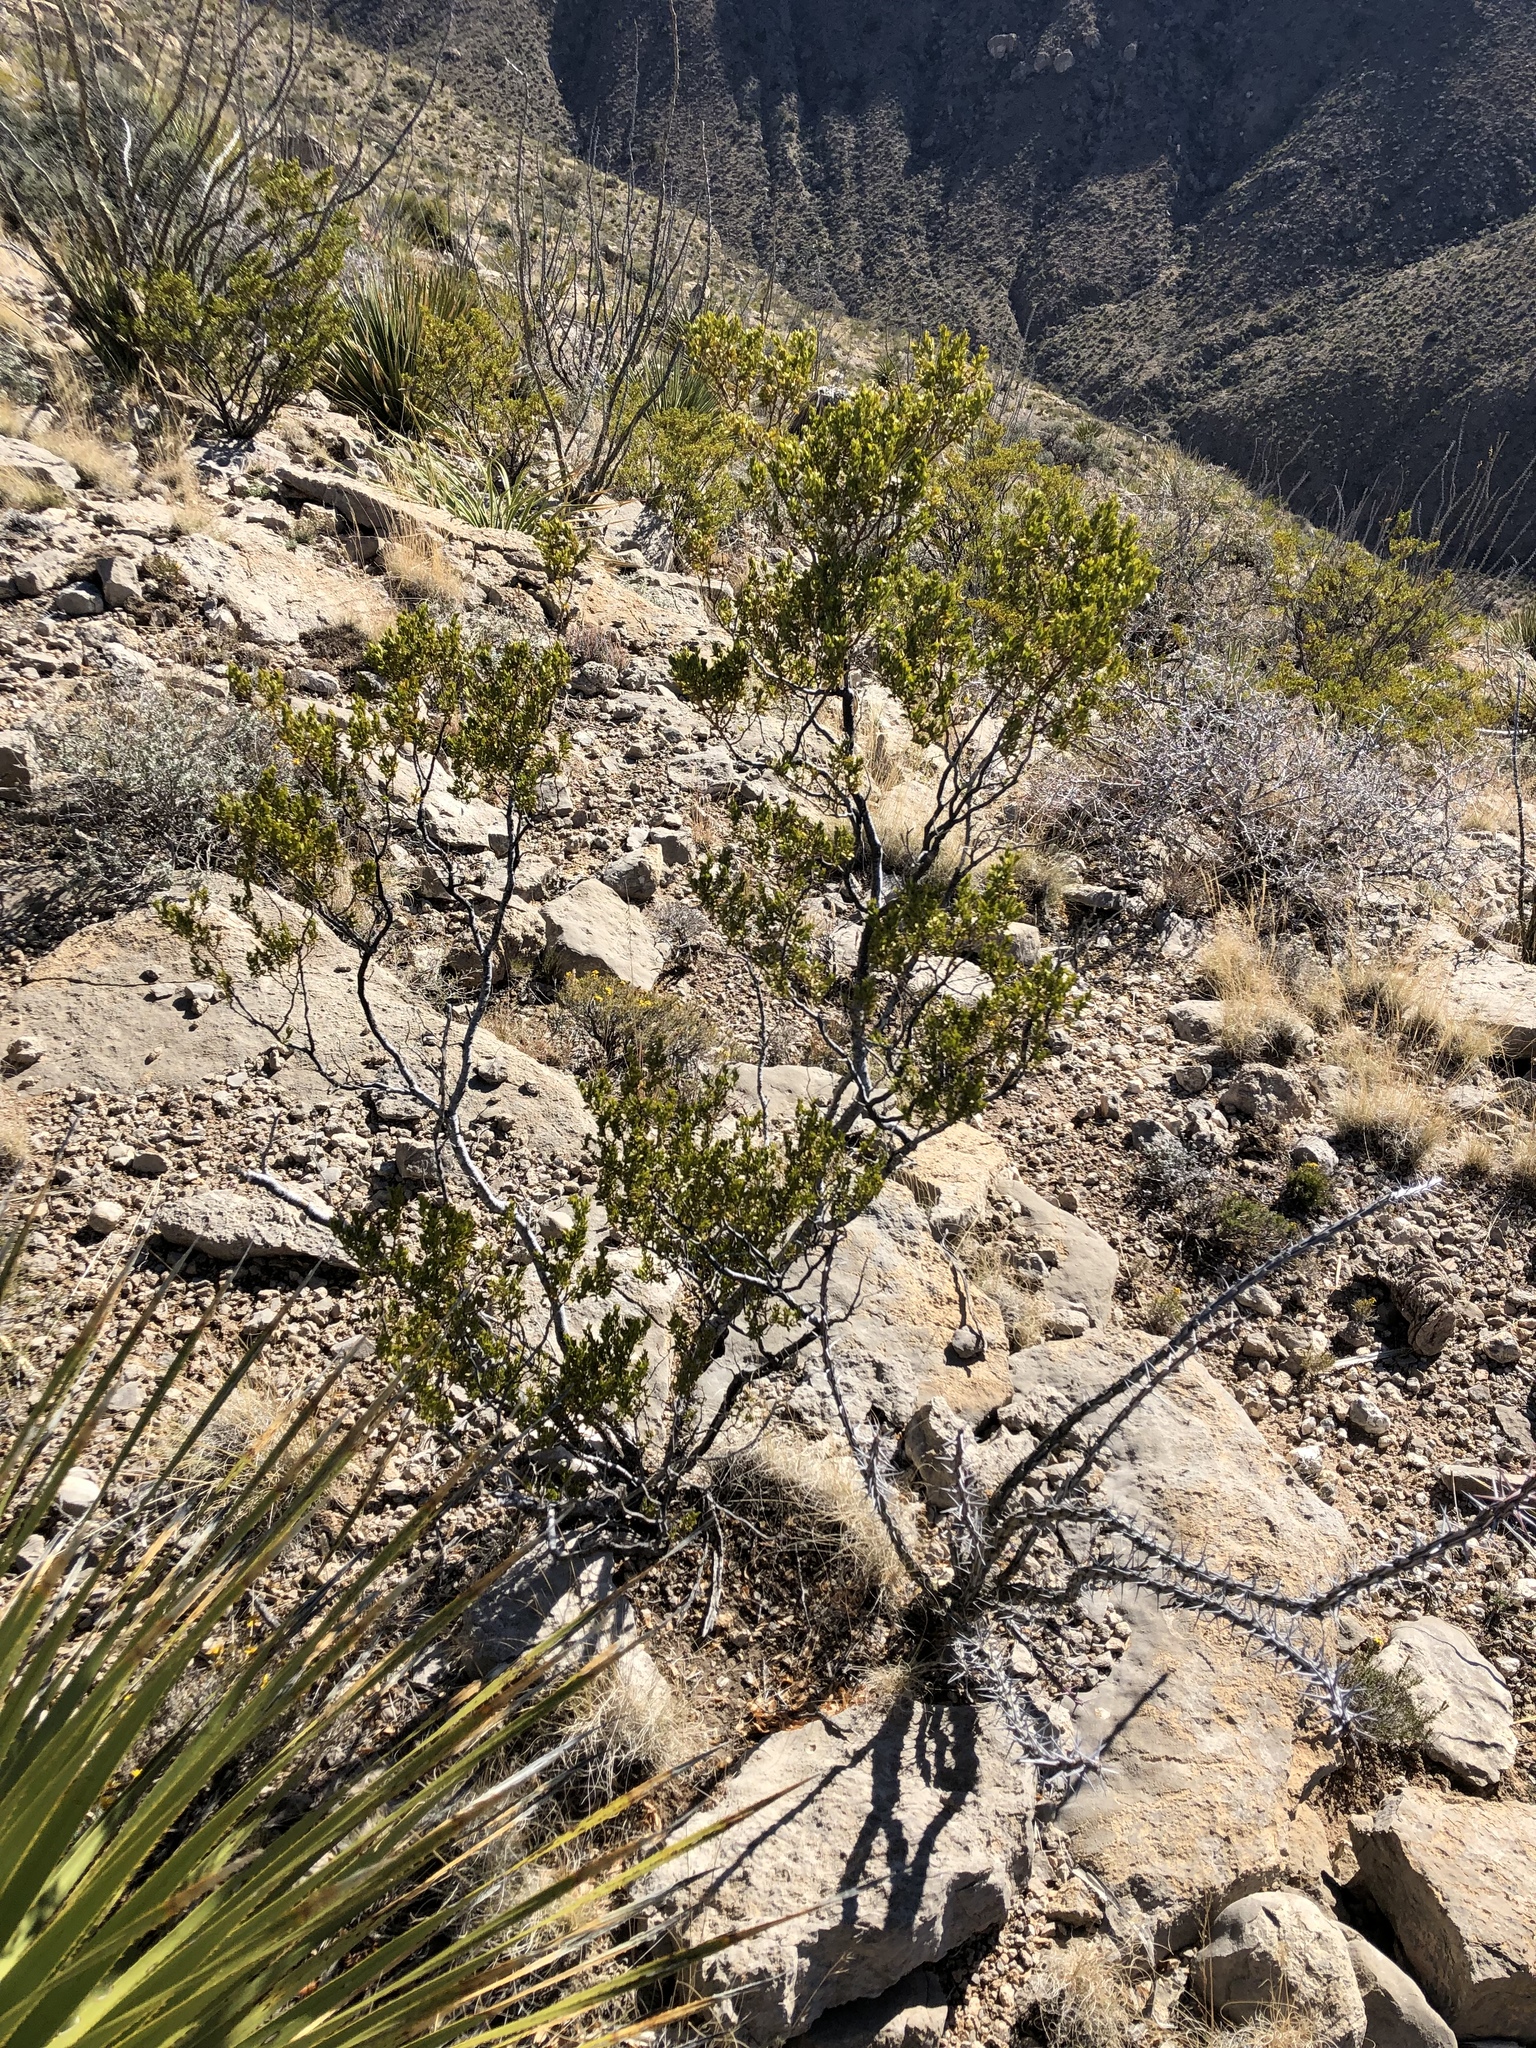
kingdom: Plantae
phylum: Tracheophyta
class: Magnoliopsida
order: Zygophyllales
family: Zygophyllaceae
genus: Larrea
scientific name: Larrea tridentata
